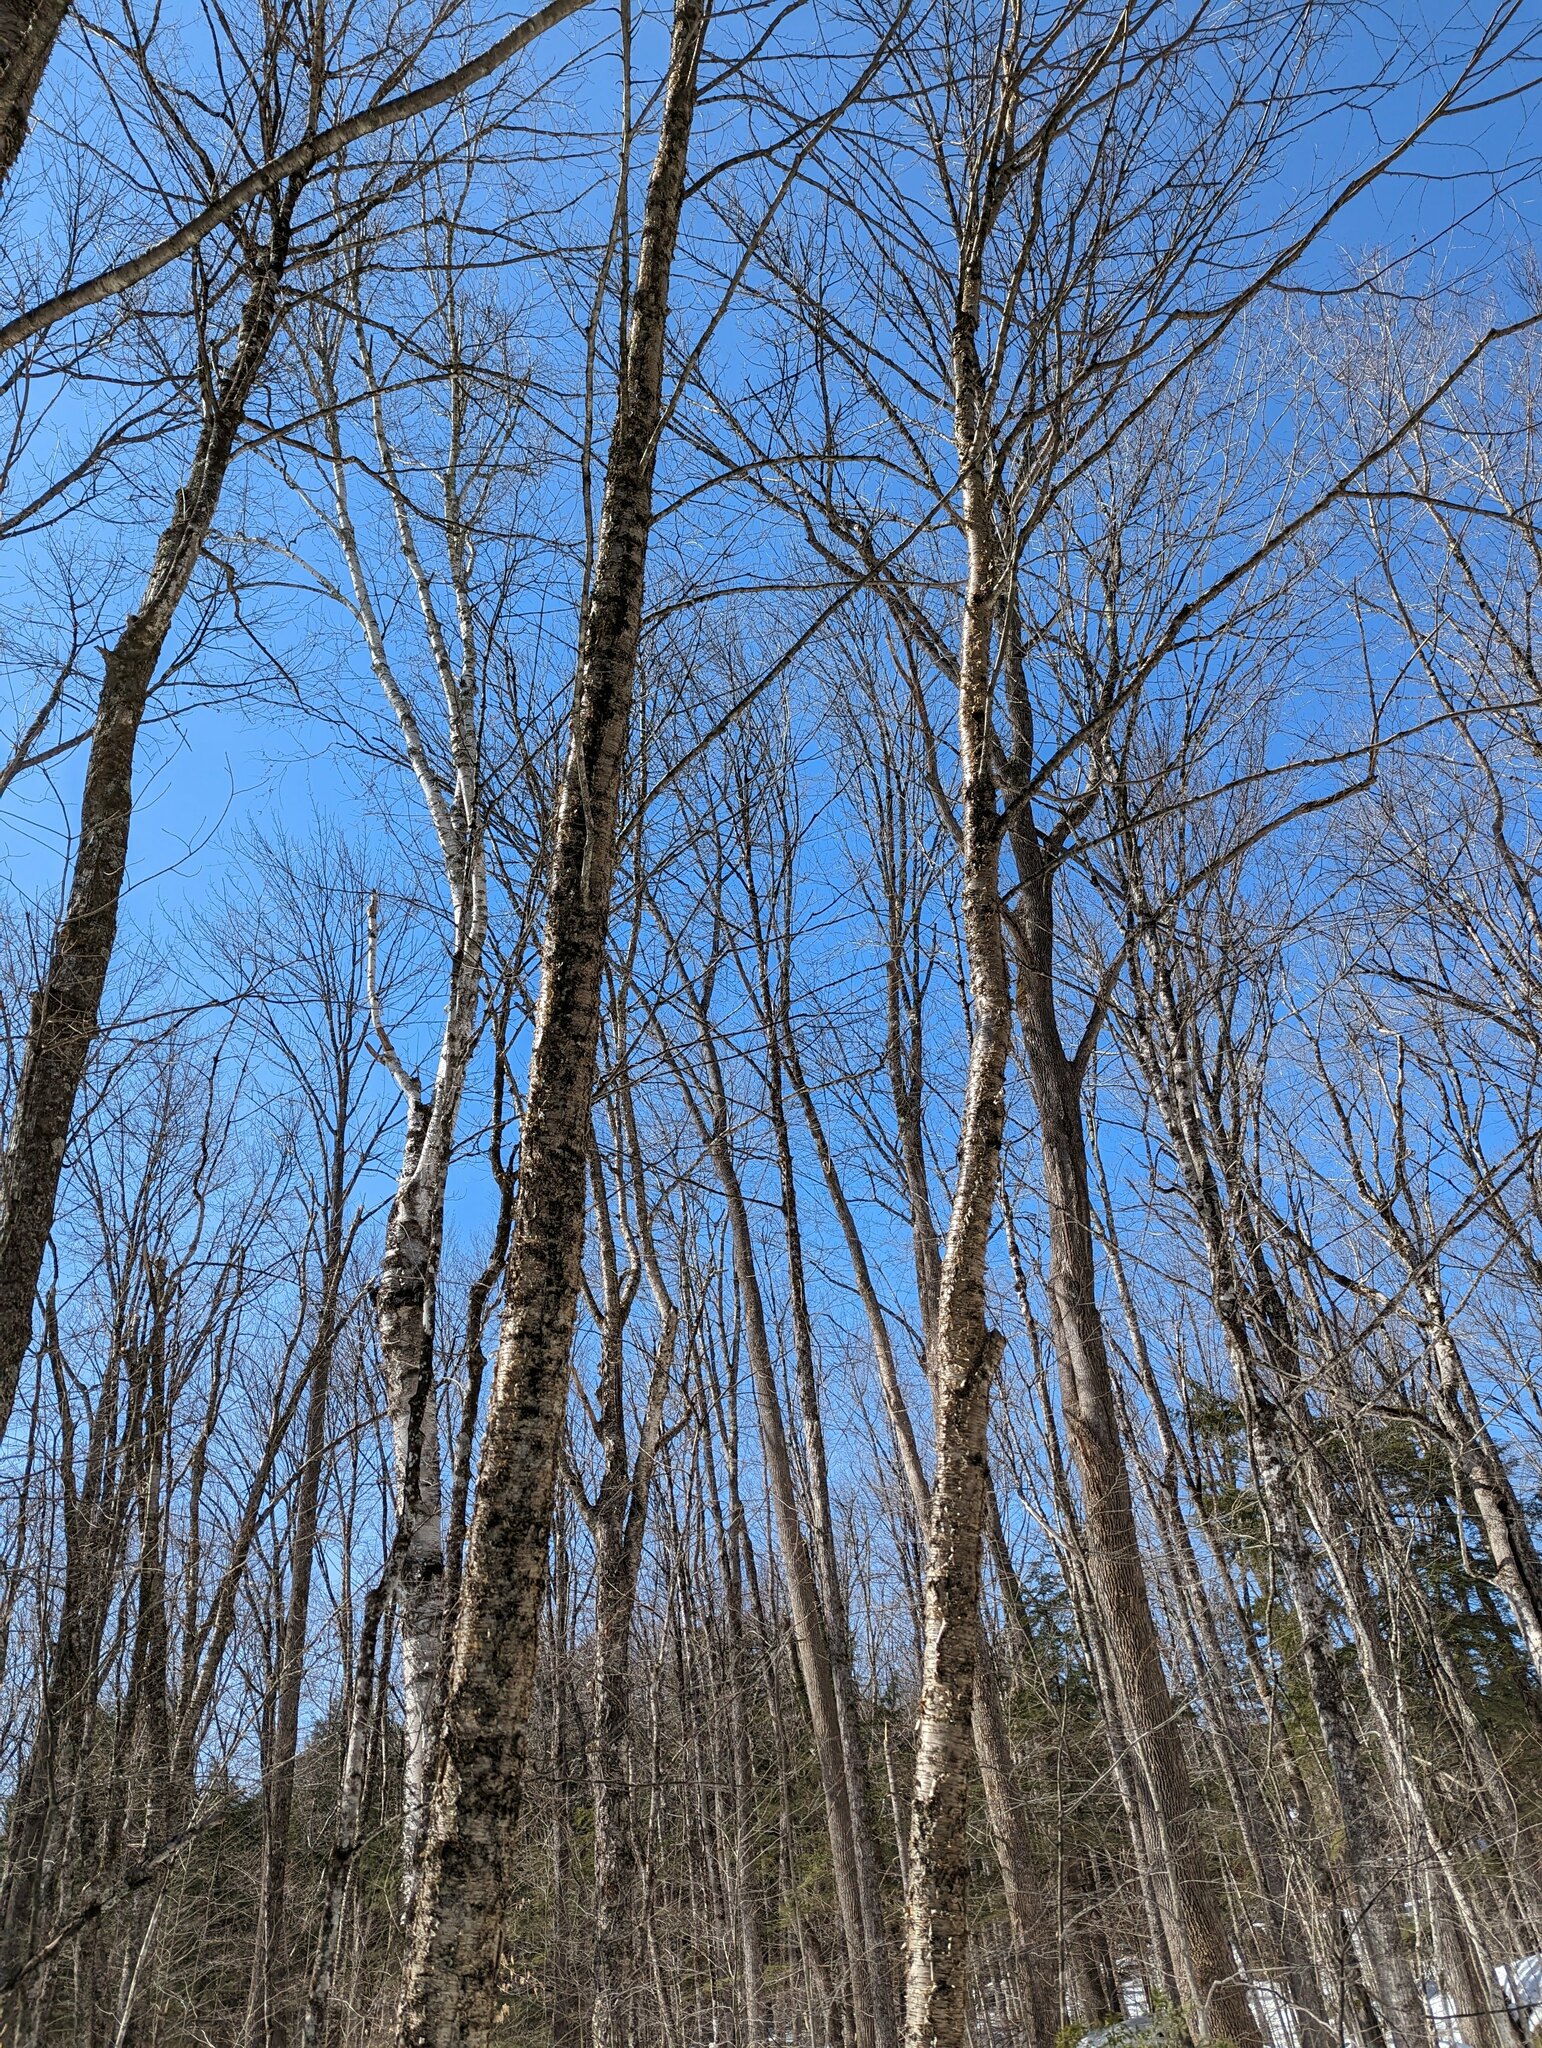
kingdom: Plantae
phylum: Tracheophyta
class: Magnoliopsida
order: Fagales
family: Betulaceae
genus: Betula
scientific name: Betula alleghaniensis
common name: Yellow birch
